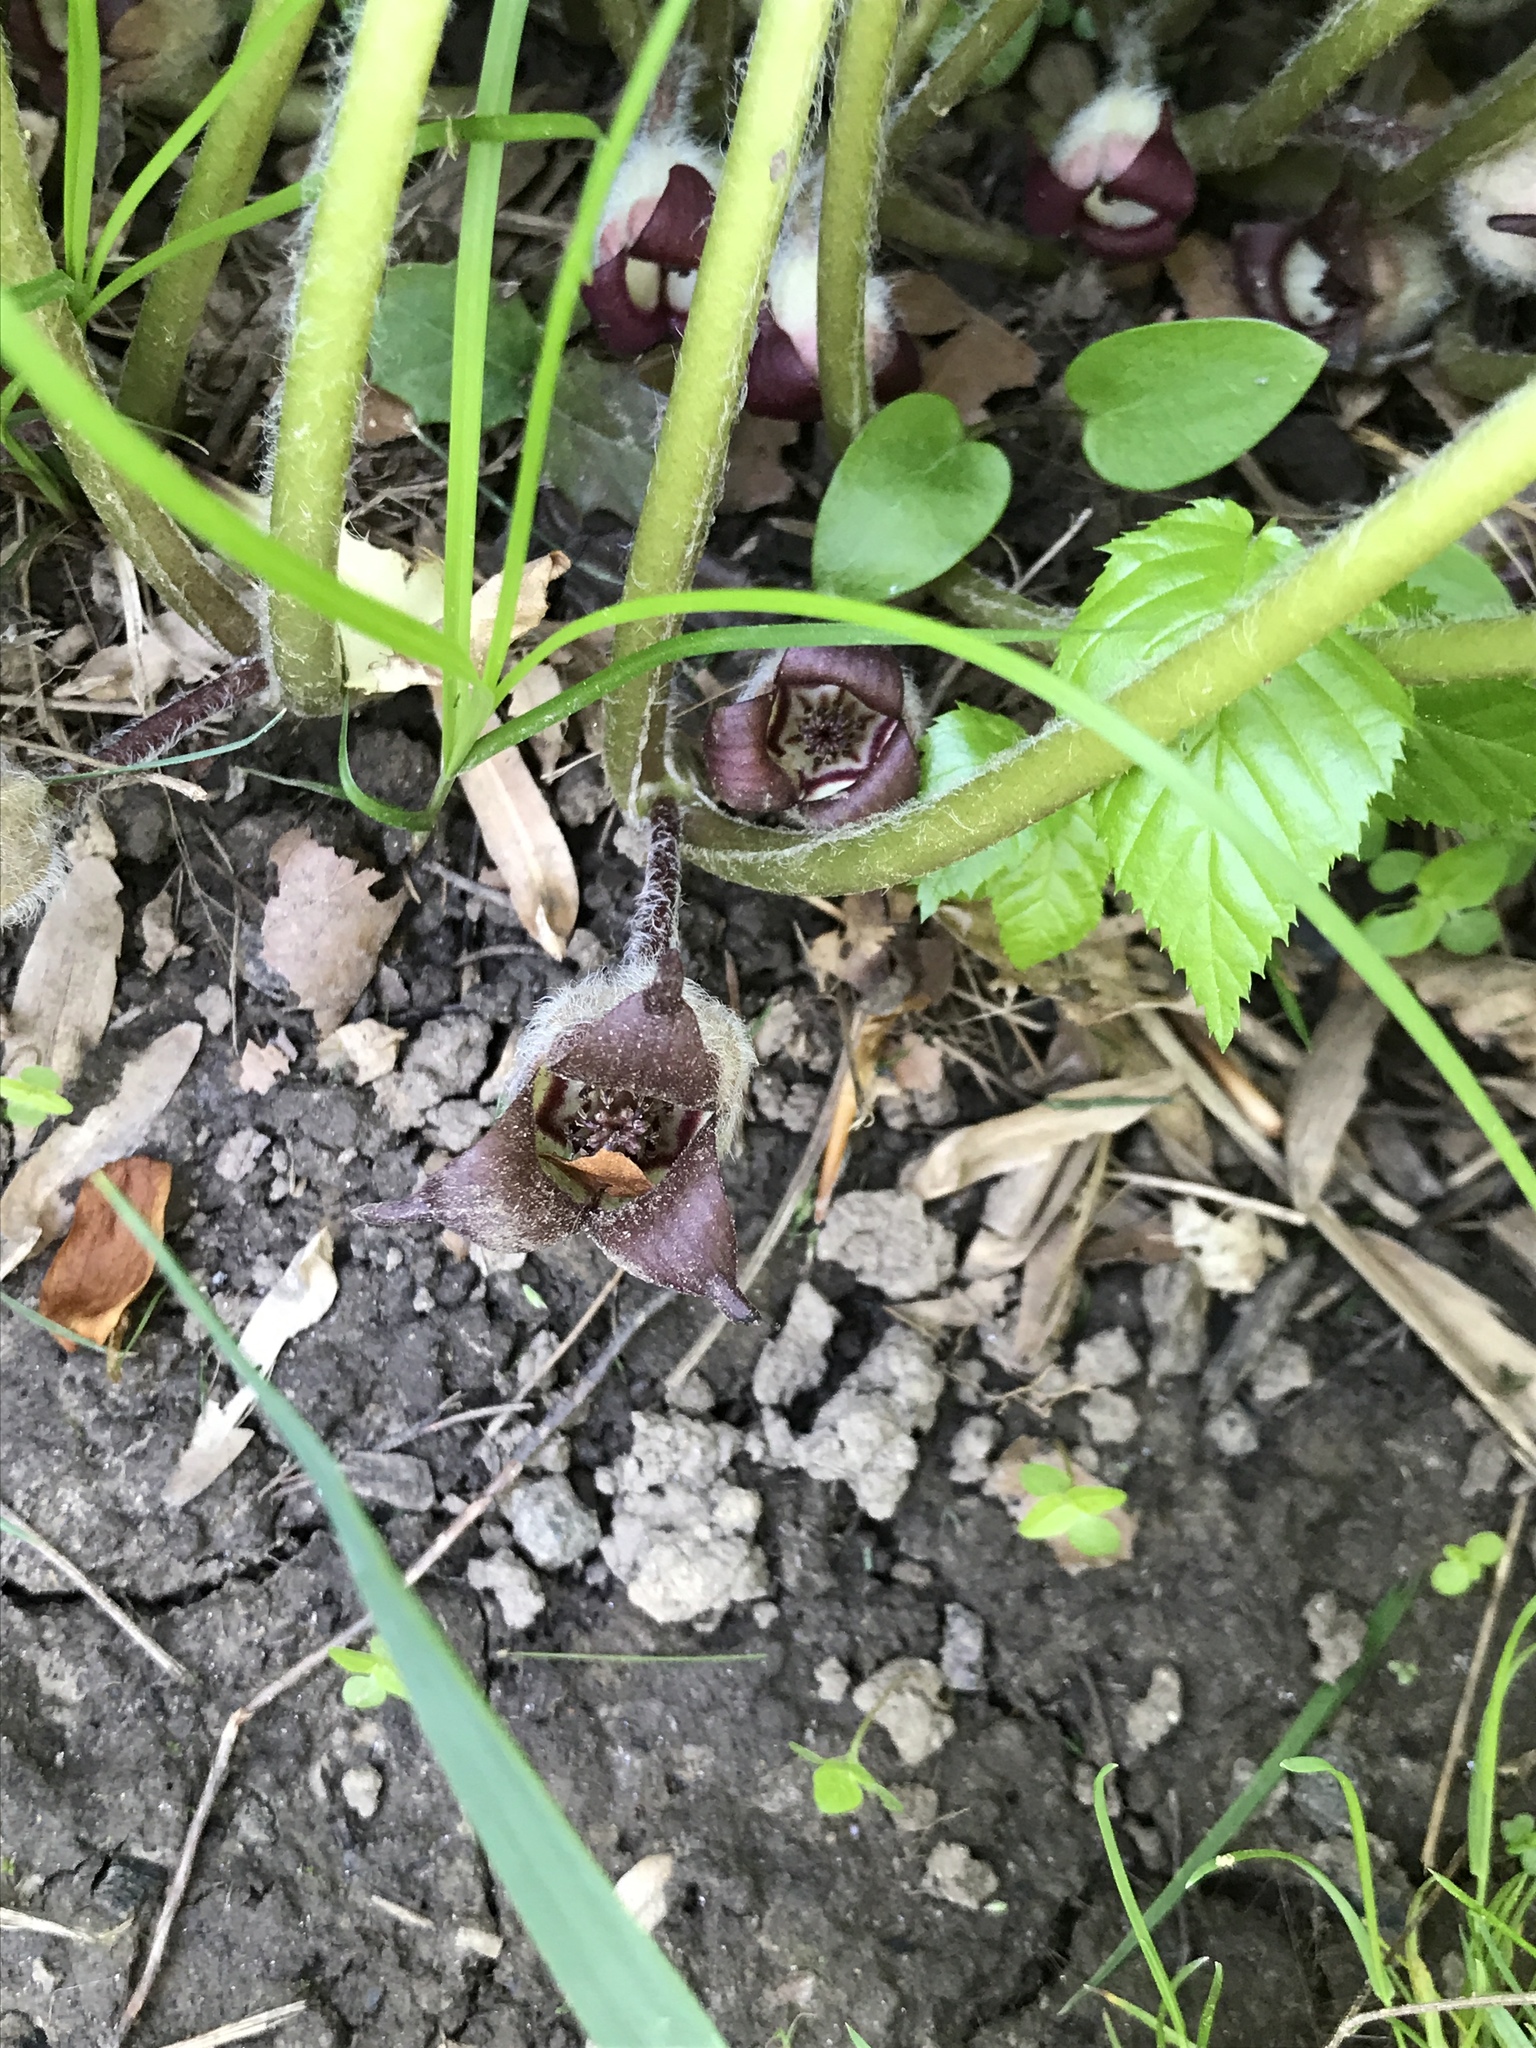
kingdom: Plantae
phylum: Tracheophyta
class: Magnoliopsida
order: Piperales
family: Aristolochiaceae
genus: Asarum
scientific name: Asarum canadense
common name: Wild ginger
